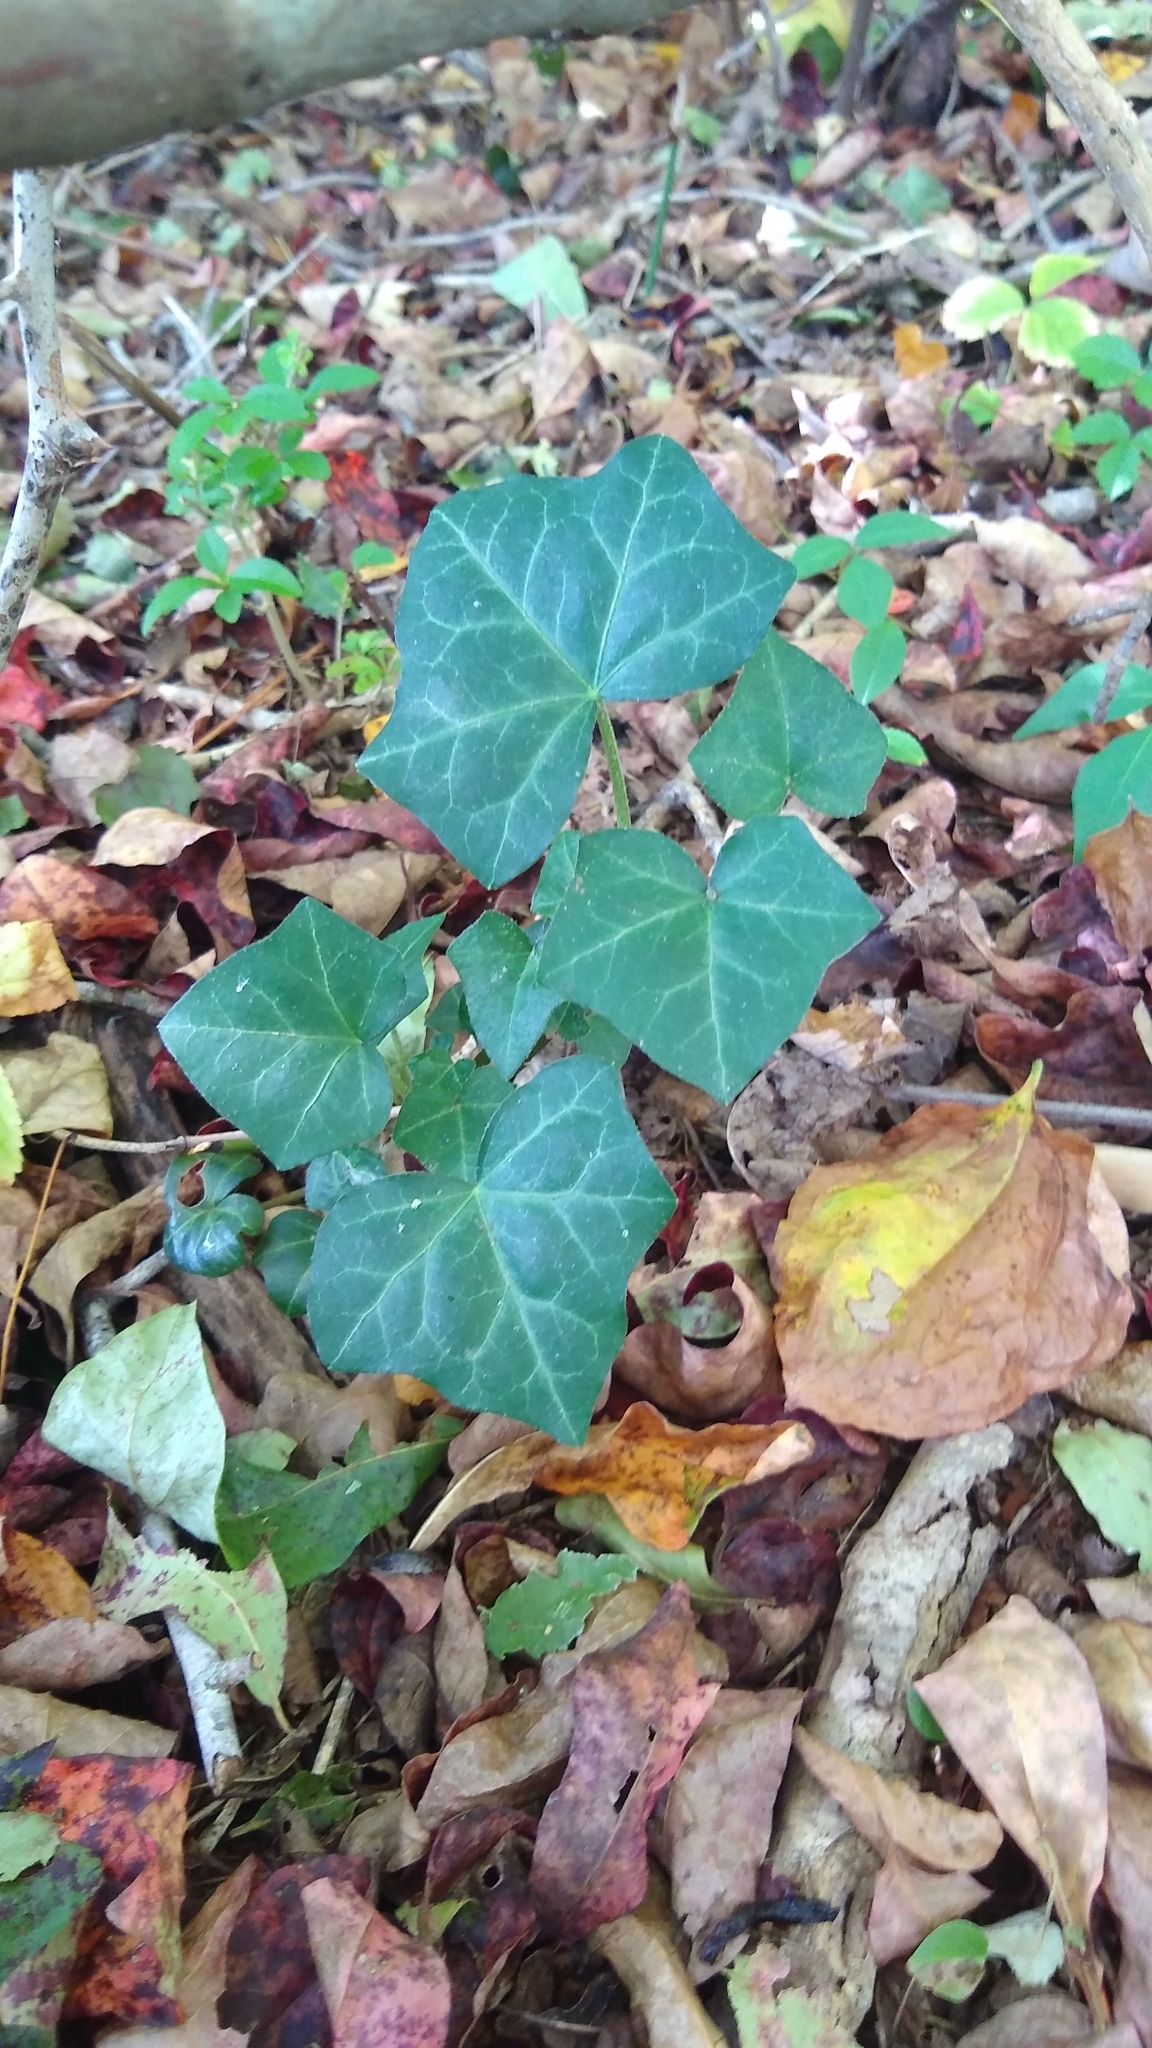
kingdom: Plantae
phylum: Tracheophyta
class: Magnoliopsida
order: Apiales
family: Araliaceae
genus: Hedera
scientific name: Hedera helix
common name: Ivy
